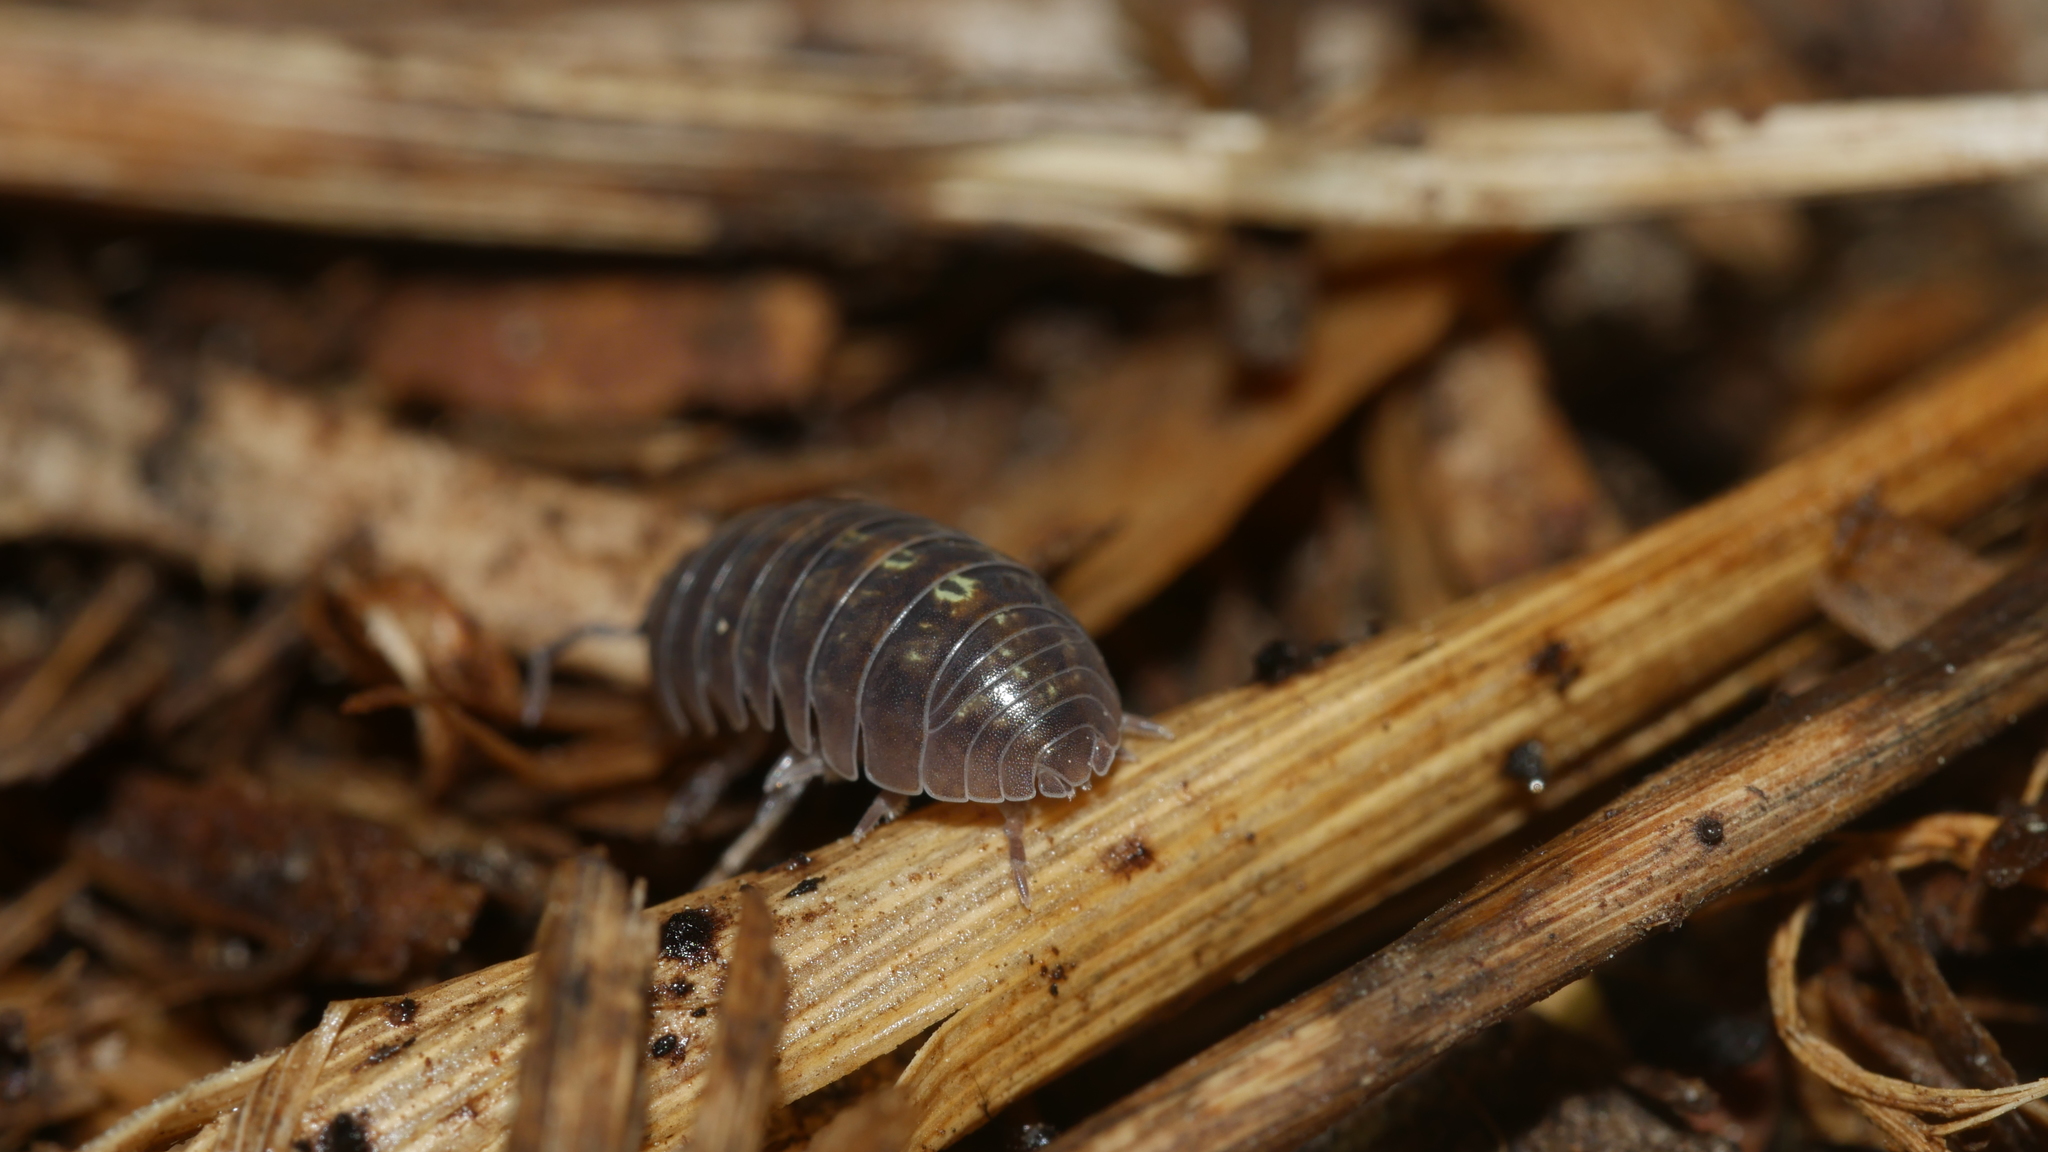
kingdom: Animalia
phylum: Arthropoda
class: Malacostraca
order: Isopoda
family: Armadillidiidae
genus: Armadillidium
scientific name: Armadillidium vulgare
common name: Common pill woodlouse
